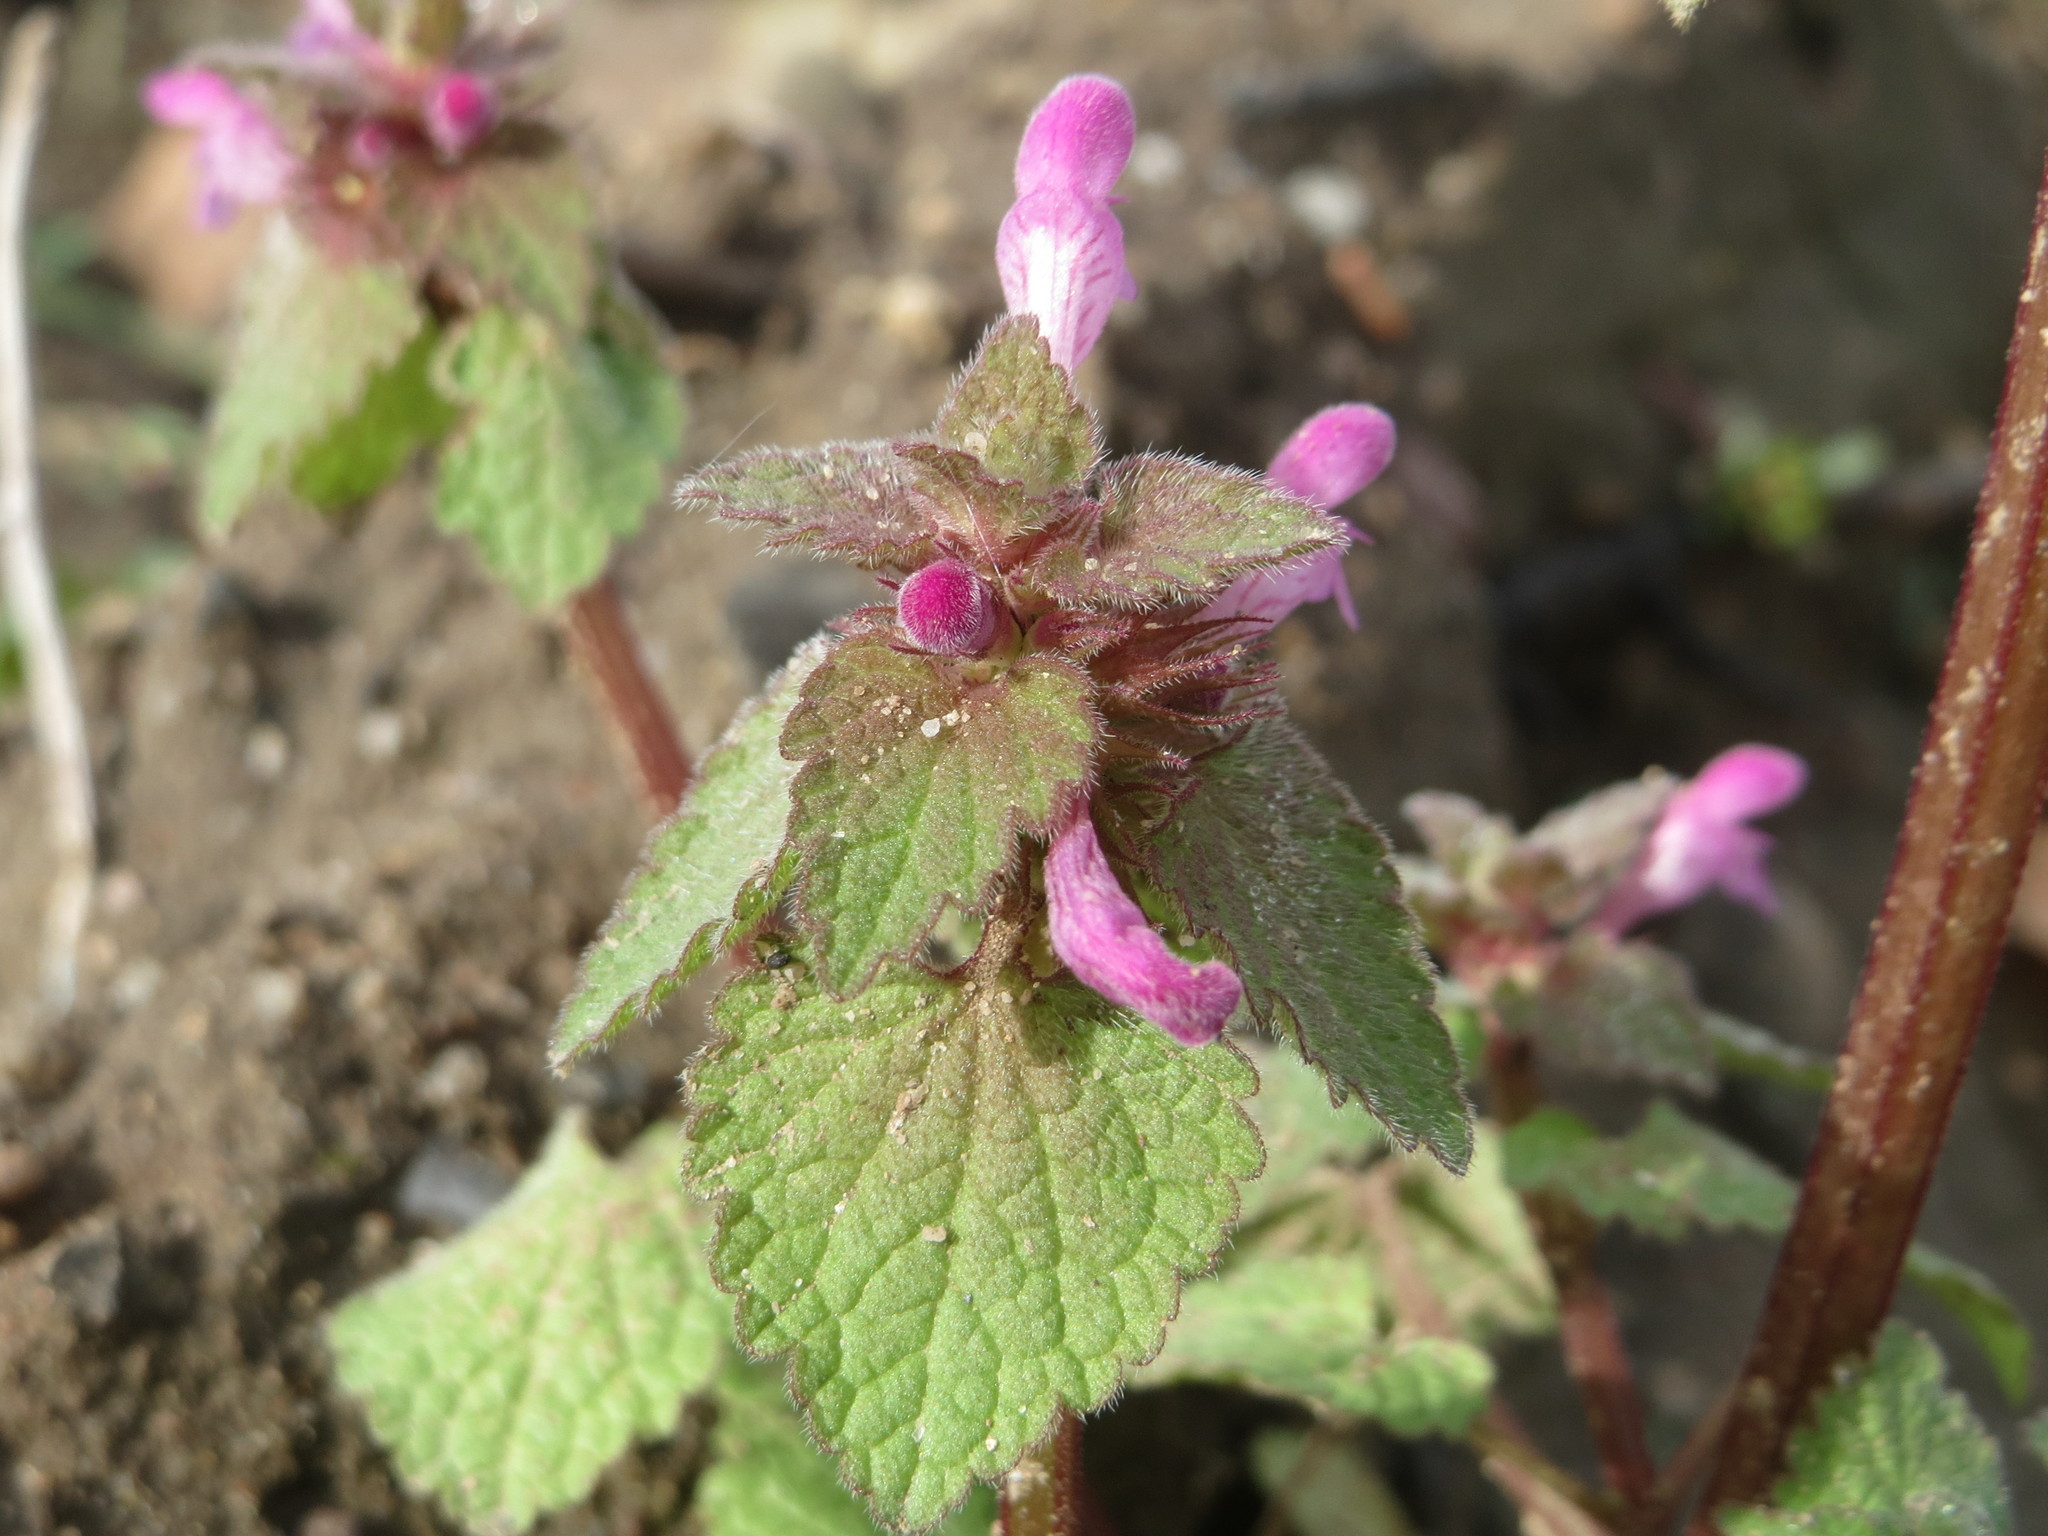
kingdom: Plantae
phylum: Tracheophyta
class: Magnoliopsida
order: Lamiales
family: Lamiaceae
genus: Lamium
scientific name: Lamium purpureum
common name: Red dead-nettle
